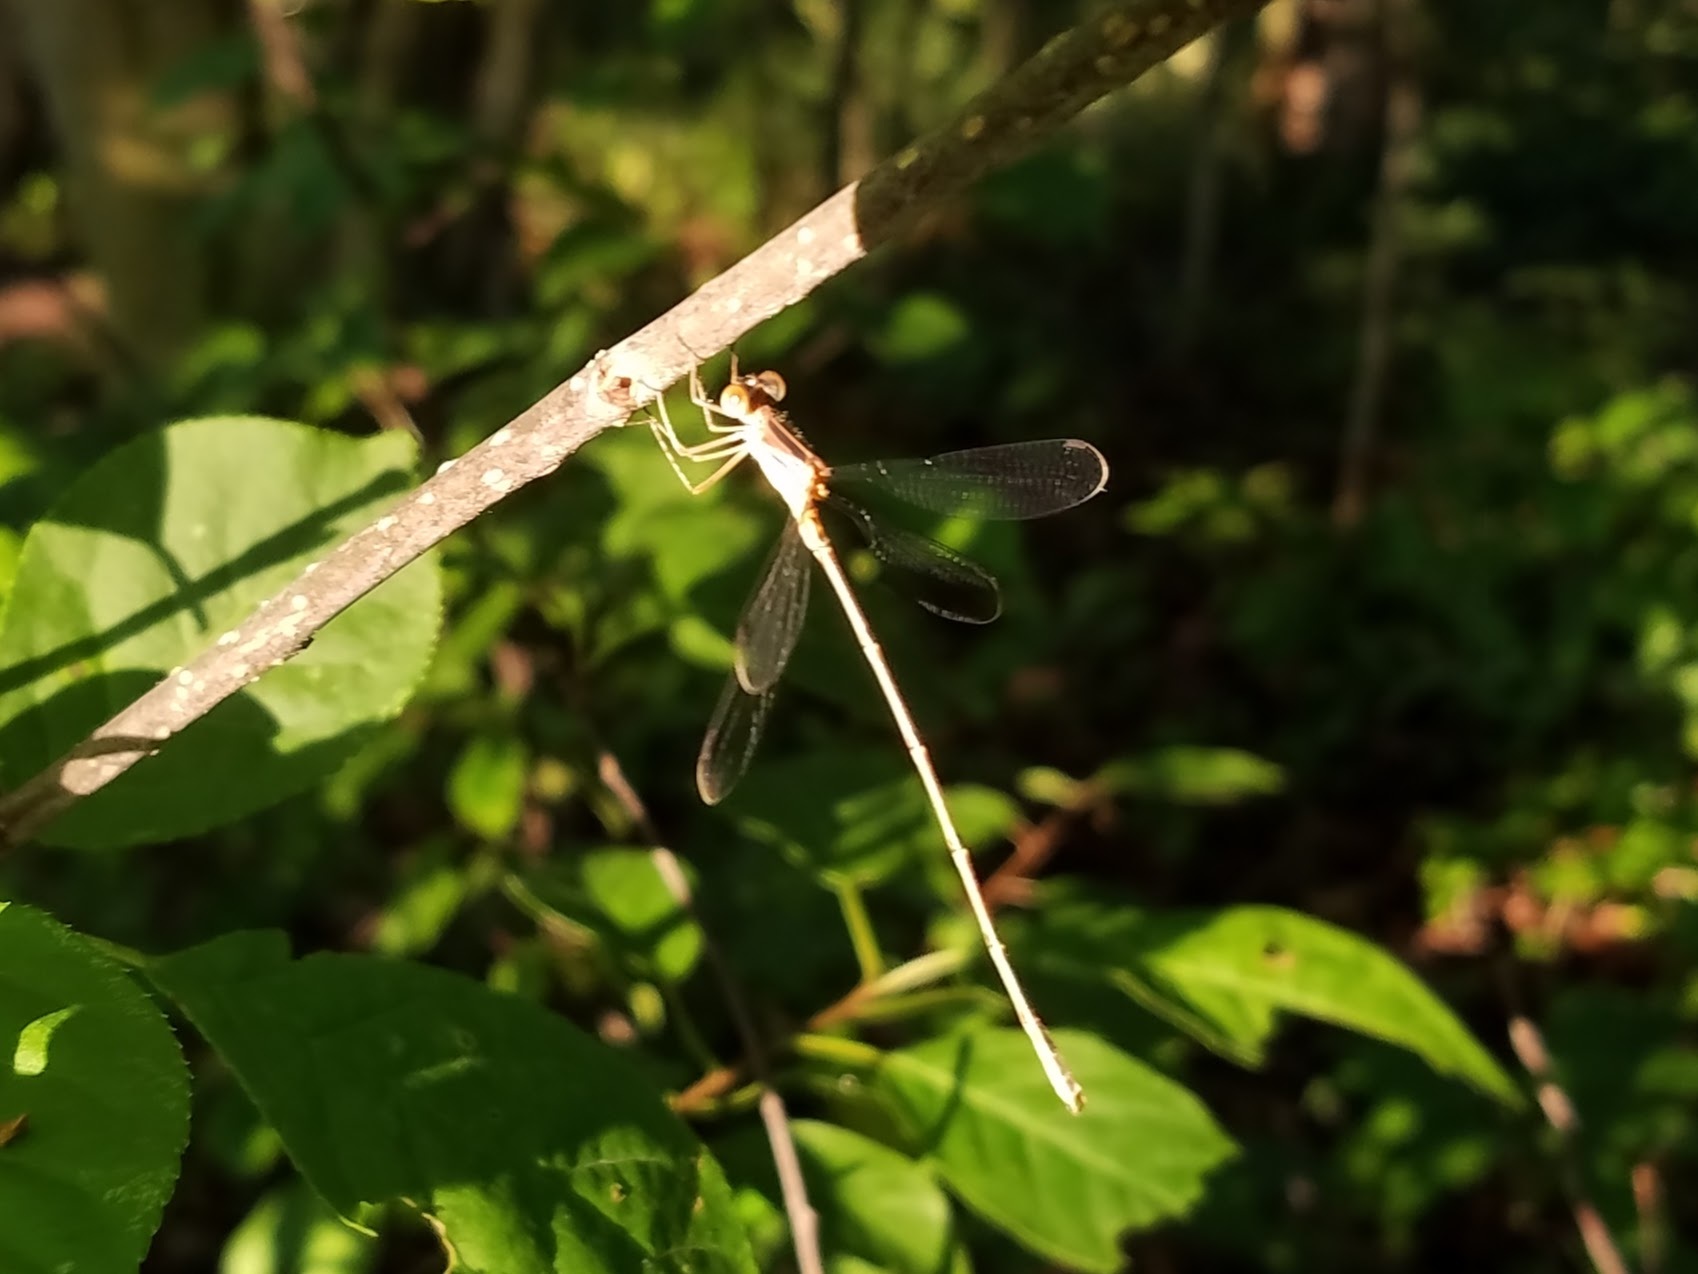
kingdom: Animalia
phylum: Arthropoda
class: Insecta
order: Odonata
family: Lestidae
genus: Lestes
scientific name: Lestes rectangularis
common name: Slender spreadwing
